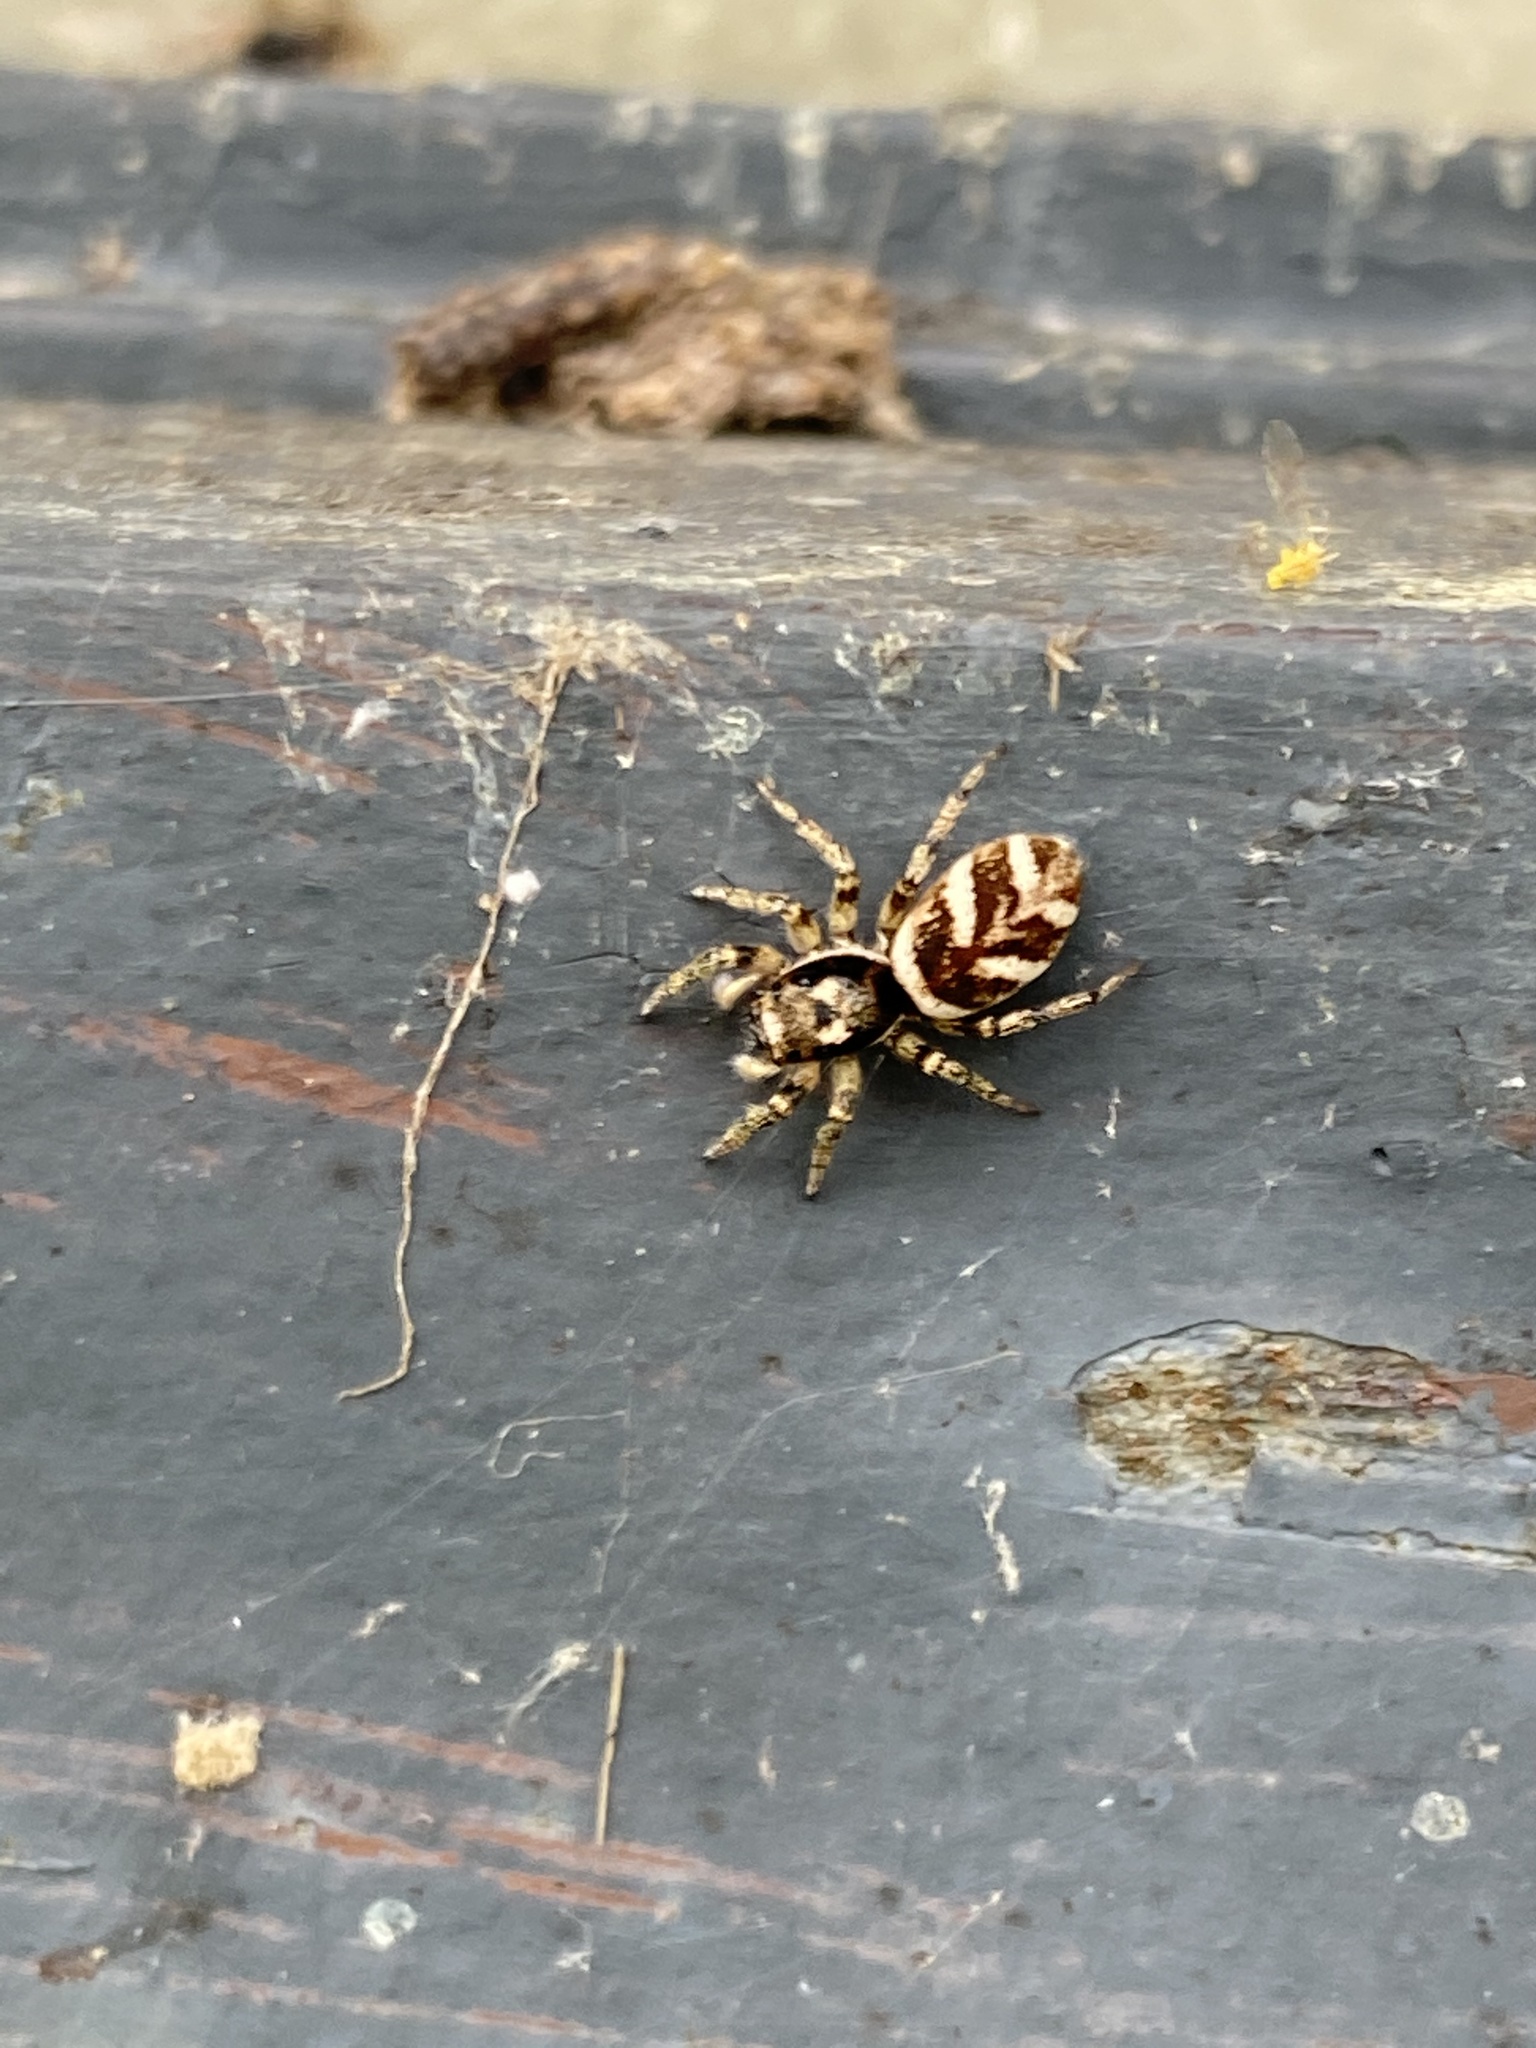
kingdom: Animalia
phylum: Arthropoda
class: Arachnida
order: Araneae
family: Salticidae
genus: Salticus
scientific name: Salticus scenicus
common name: Zebra jumper
